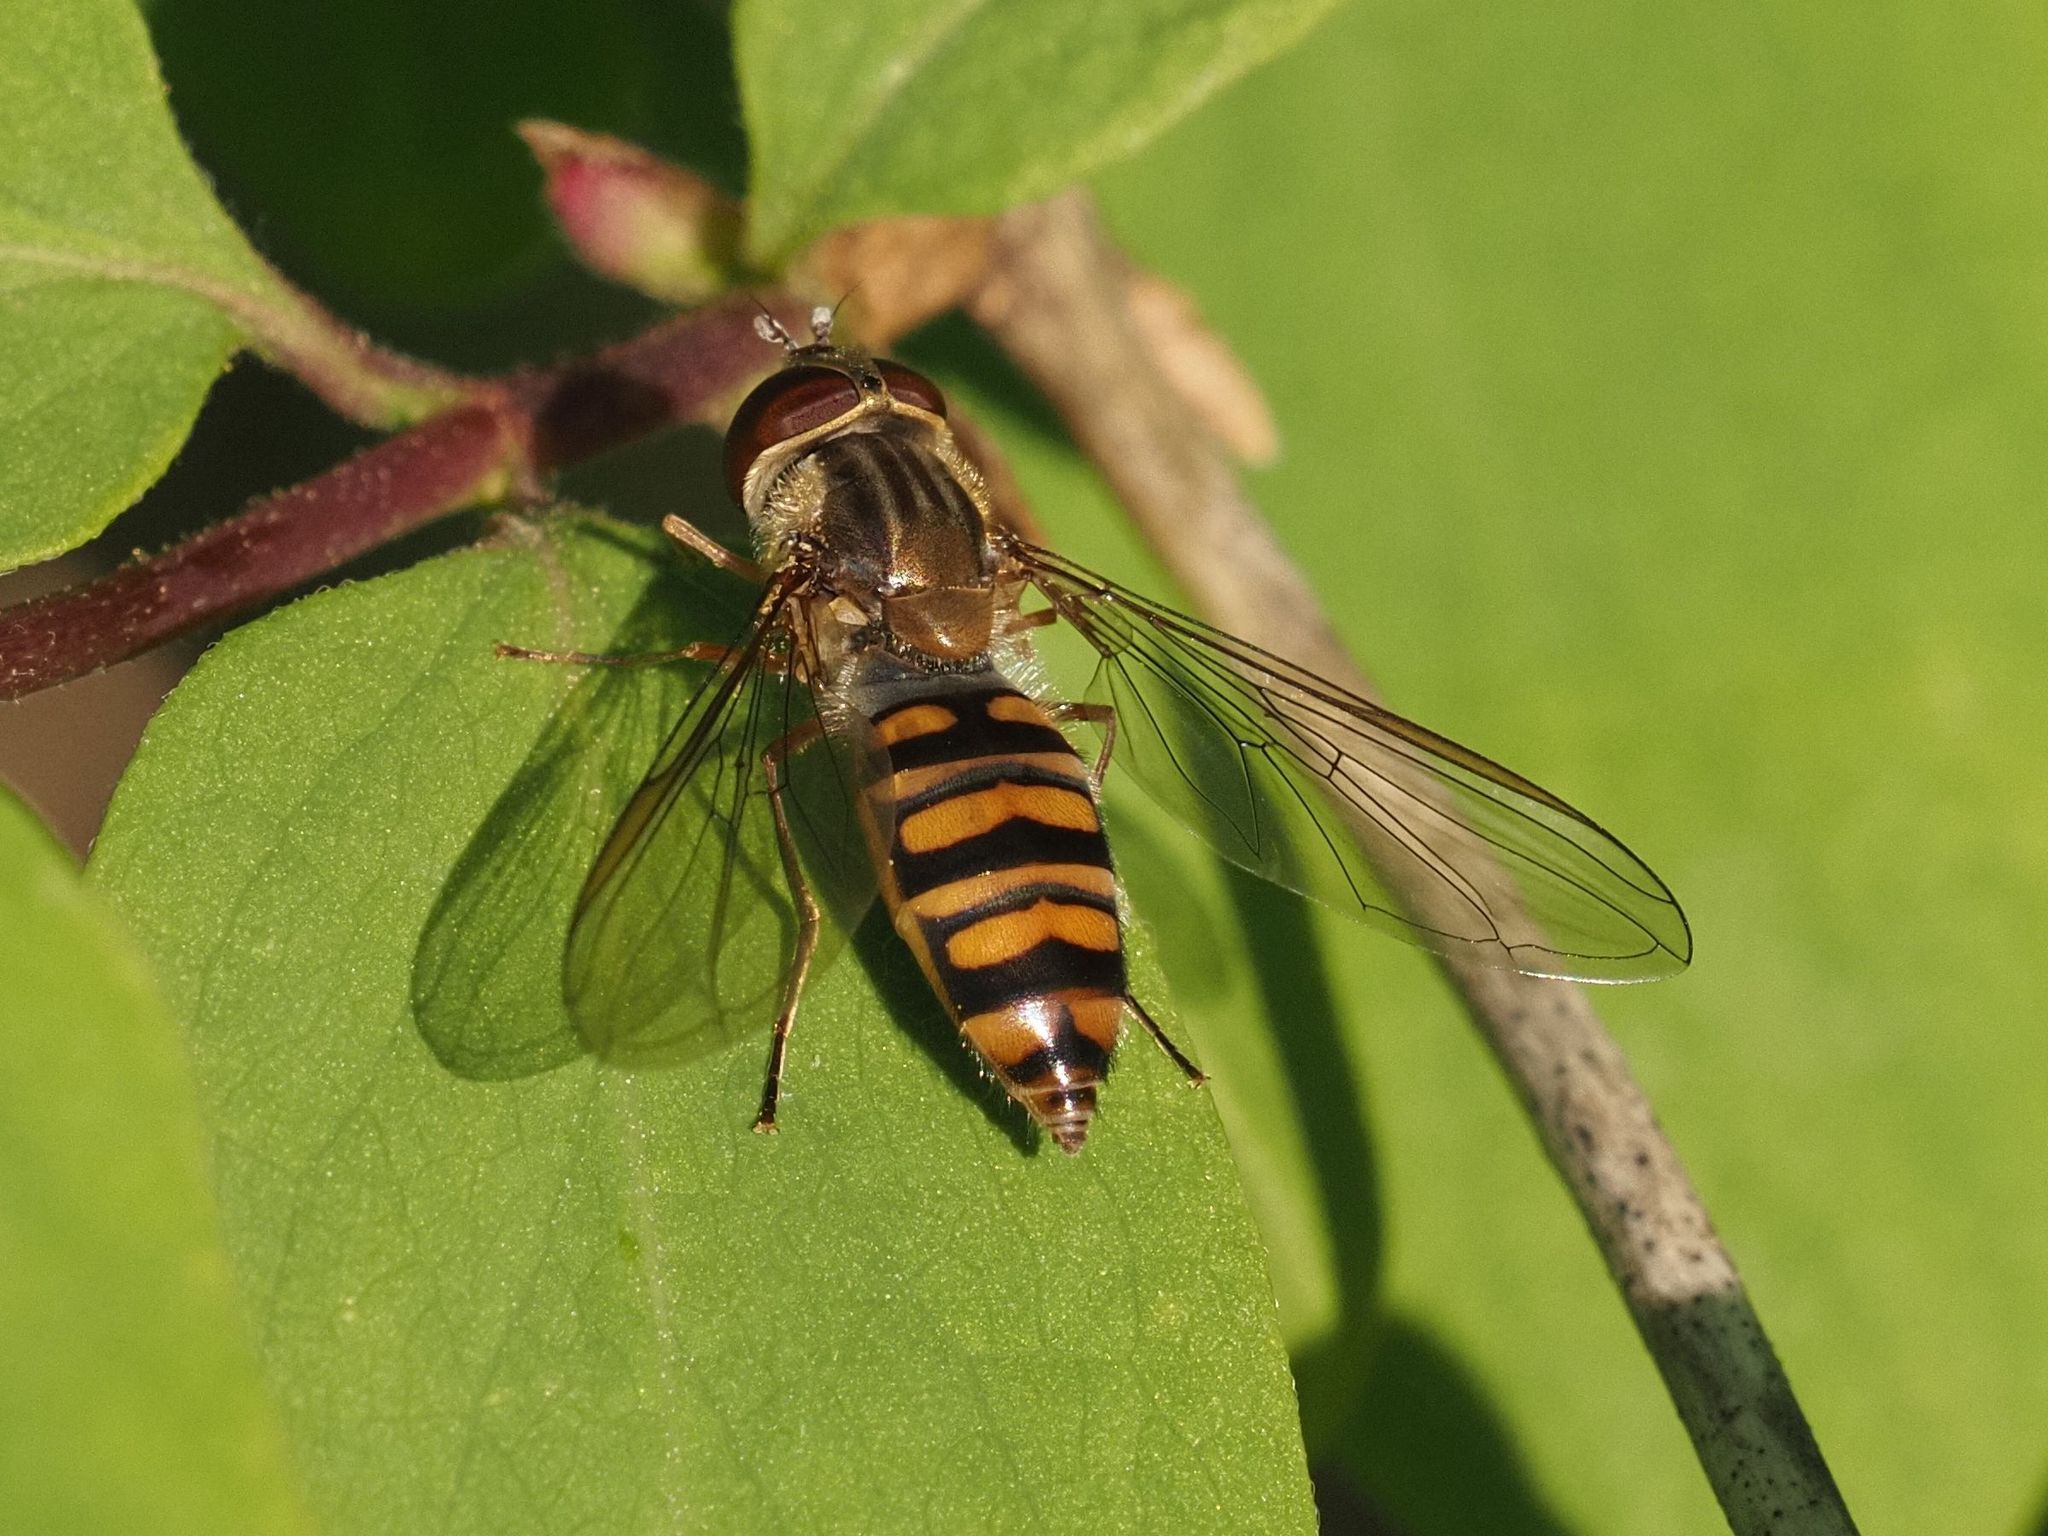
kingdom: Animalia
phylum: Arthropoda
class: Insecta
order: Diptera
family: Syrphidae
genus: Episyrphus
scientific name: Episyrphus balteatus
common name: Marmalade hoverfly
